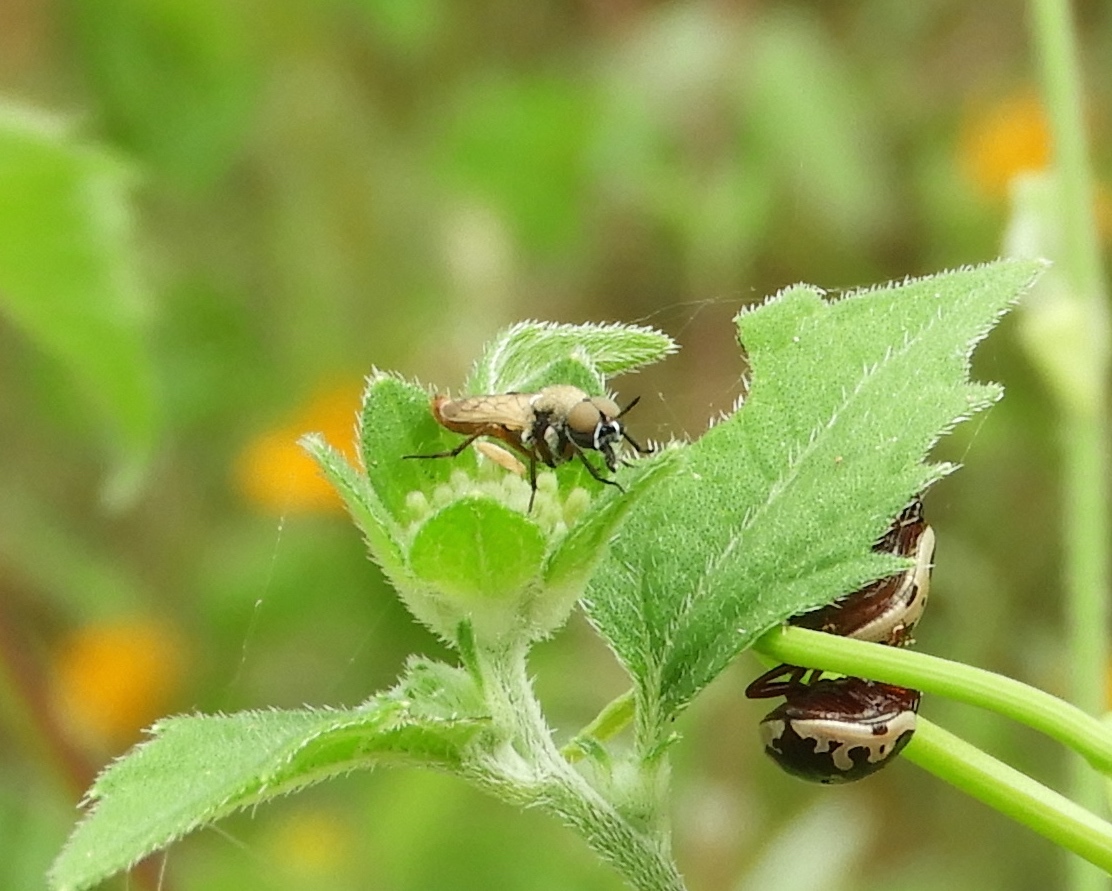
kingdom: Animalia
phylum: Arthropoda
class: Insecta
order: Coleoptera
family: Chrysomelidae
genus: Calligrapha
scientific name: Calligrapha
